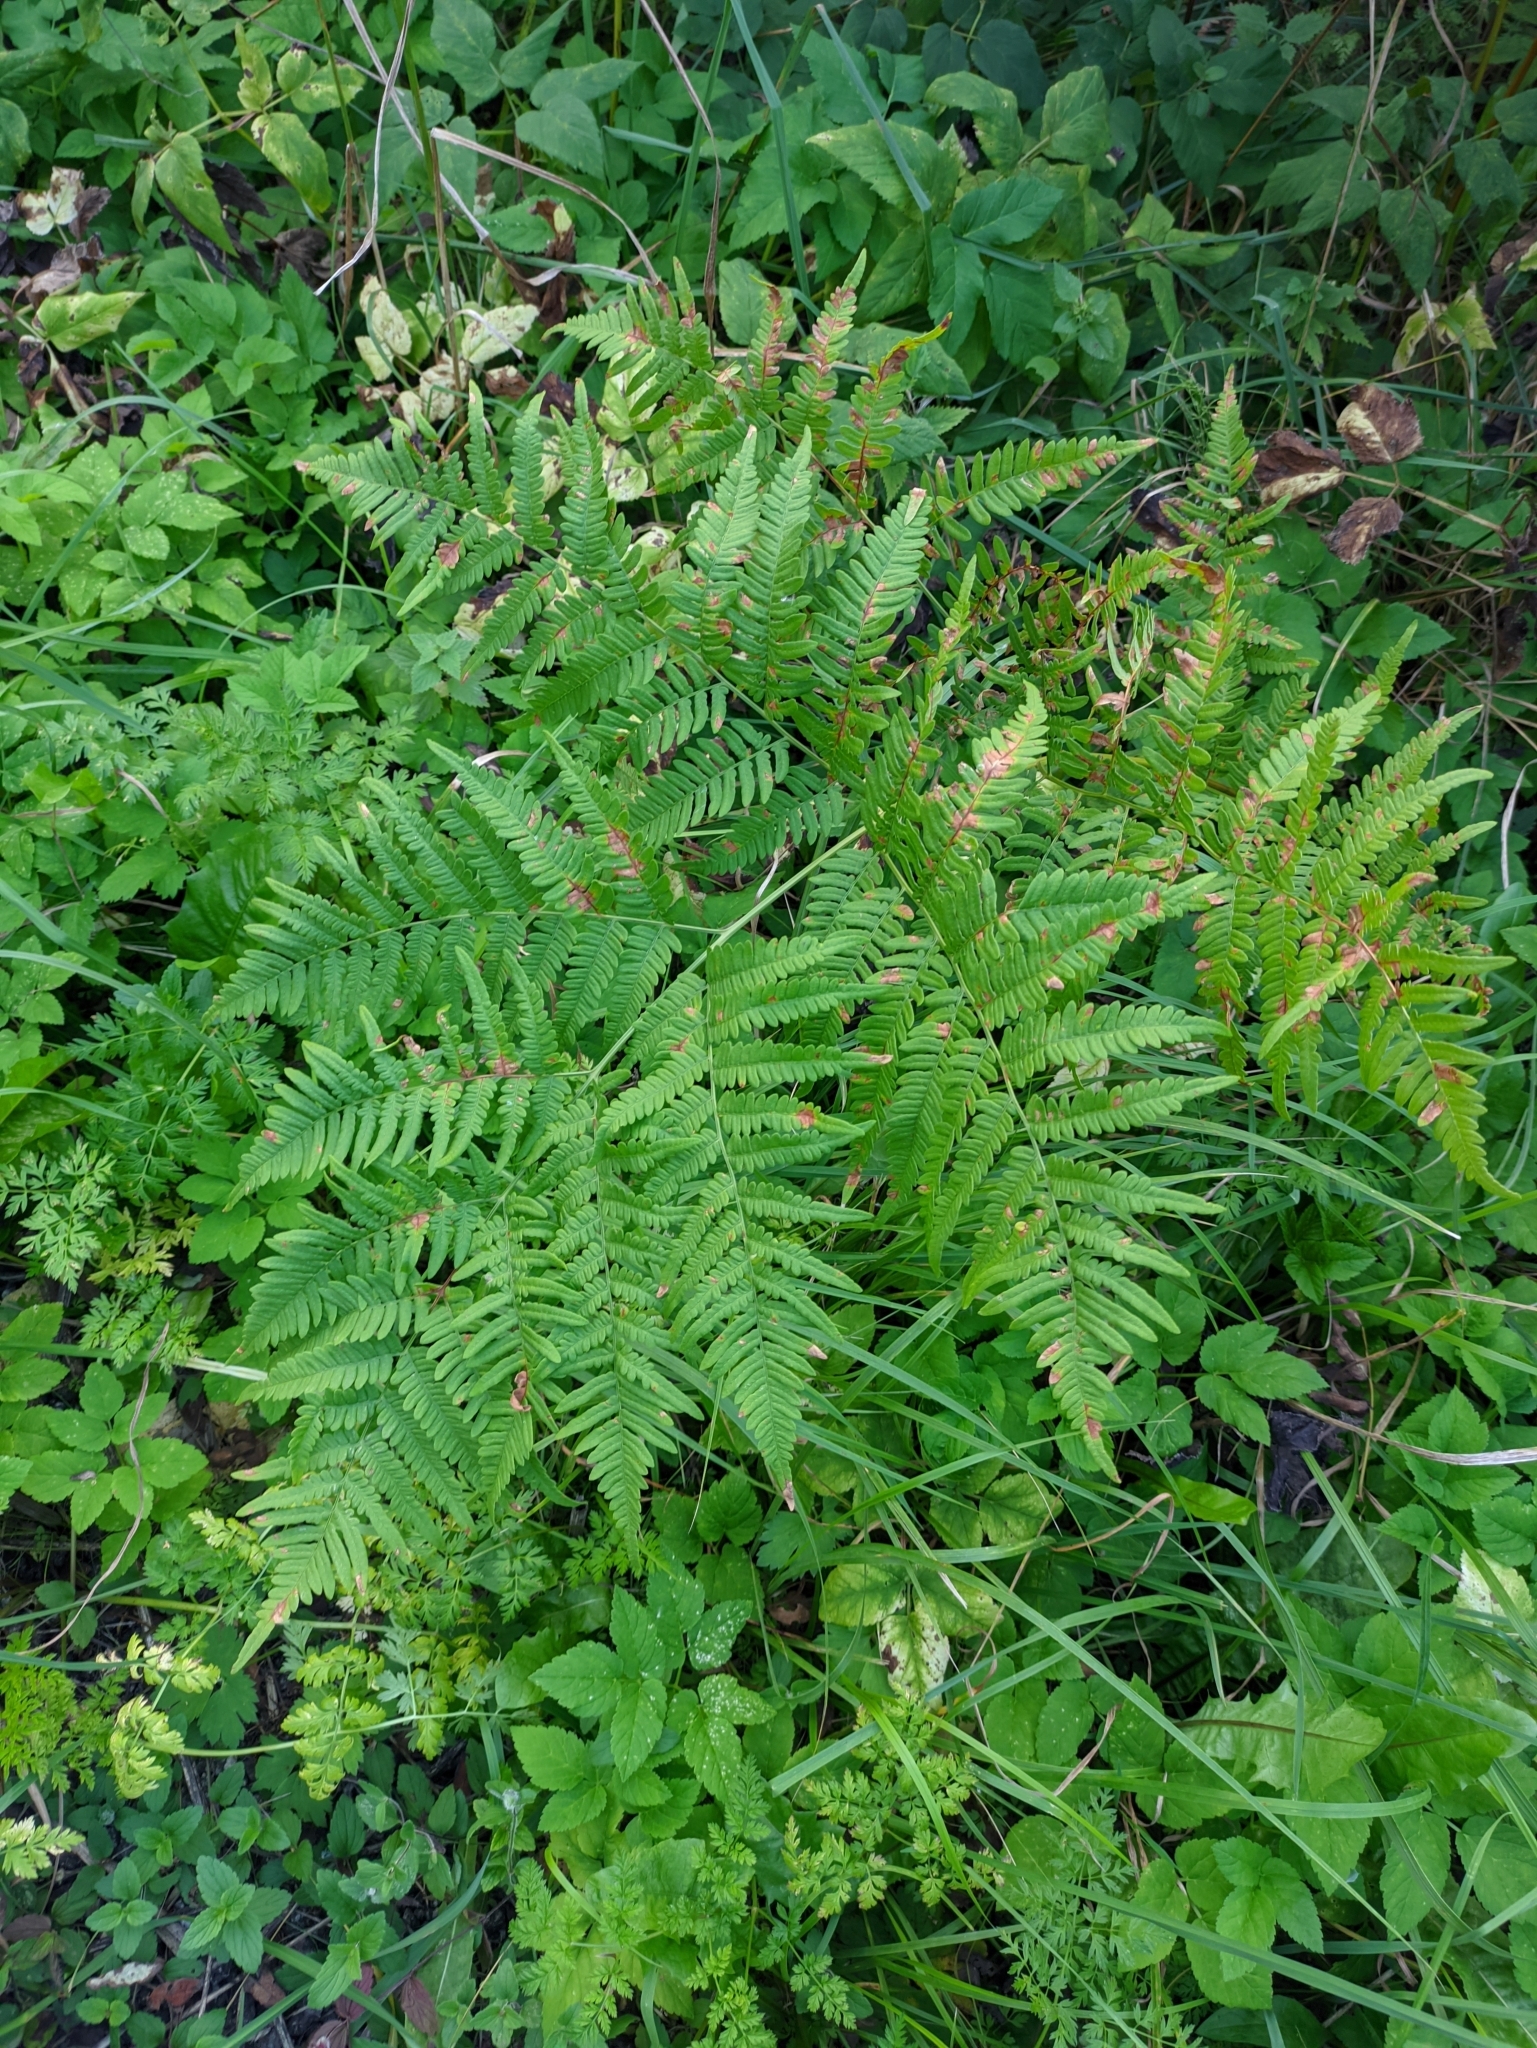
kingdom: Plantae
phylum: Tracheophyta
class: Polypodiopsida
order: Polypodiales
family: Dennstaedtiaceae
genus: Pteridium
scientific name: Pteridium aquilinum
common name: Bracken
